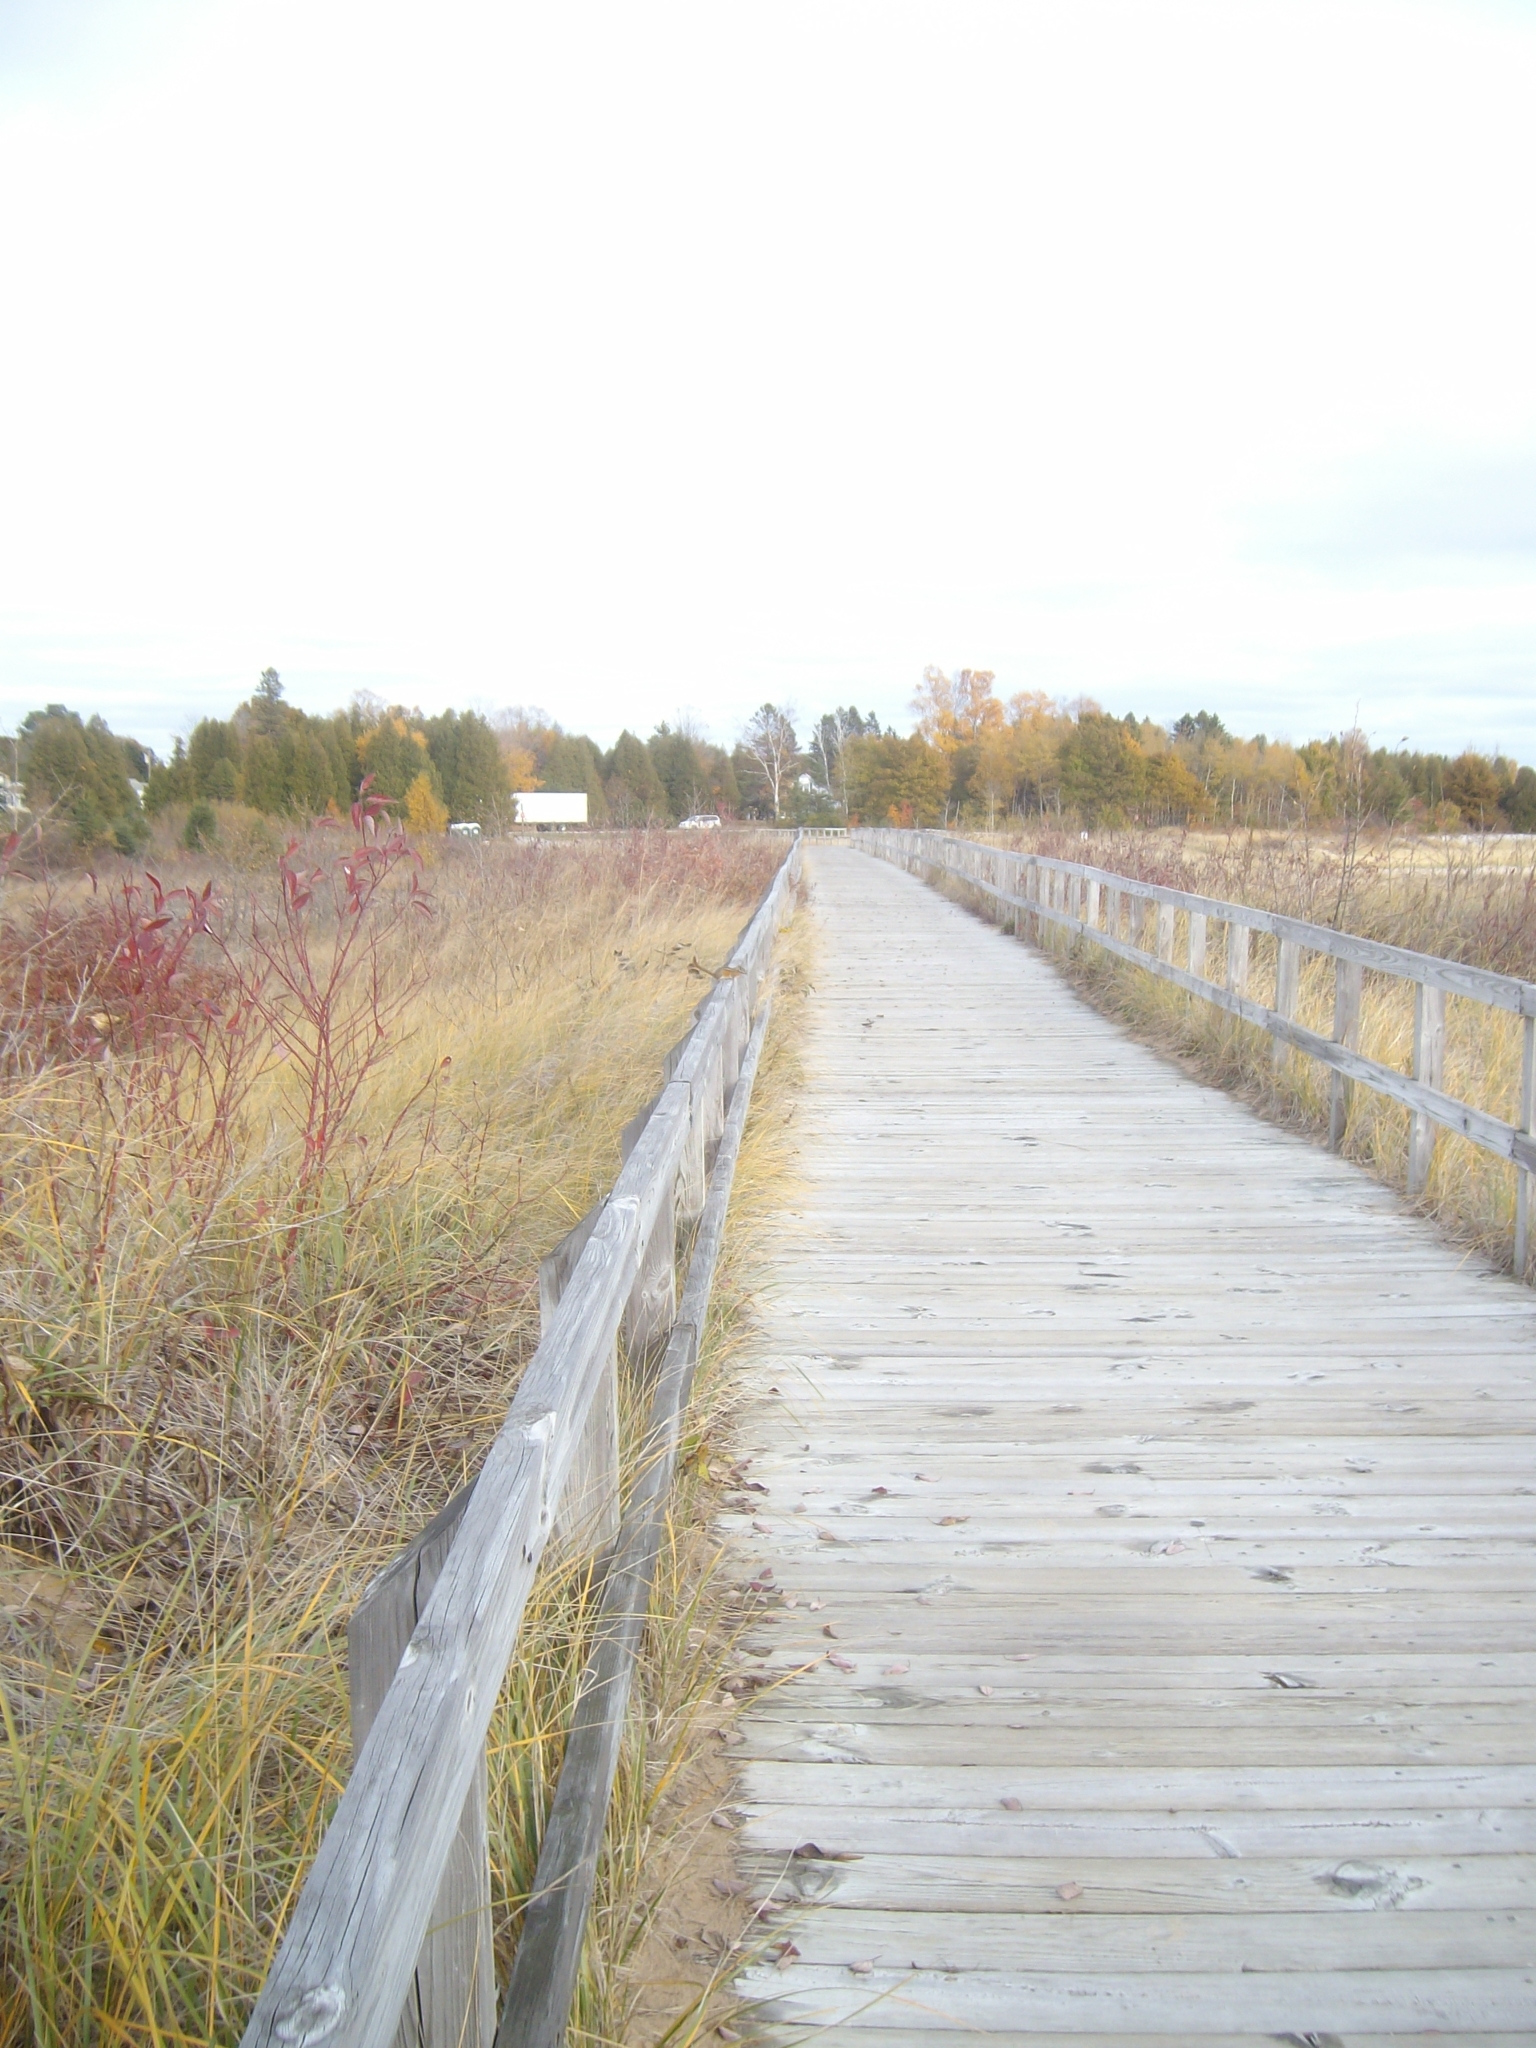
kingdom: Animalia
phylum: Chordata
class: Mammalia
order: Rodentia
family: Sciuridae
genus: Tamias
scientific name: Tamias minimus
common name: Least chipmunk
